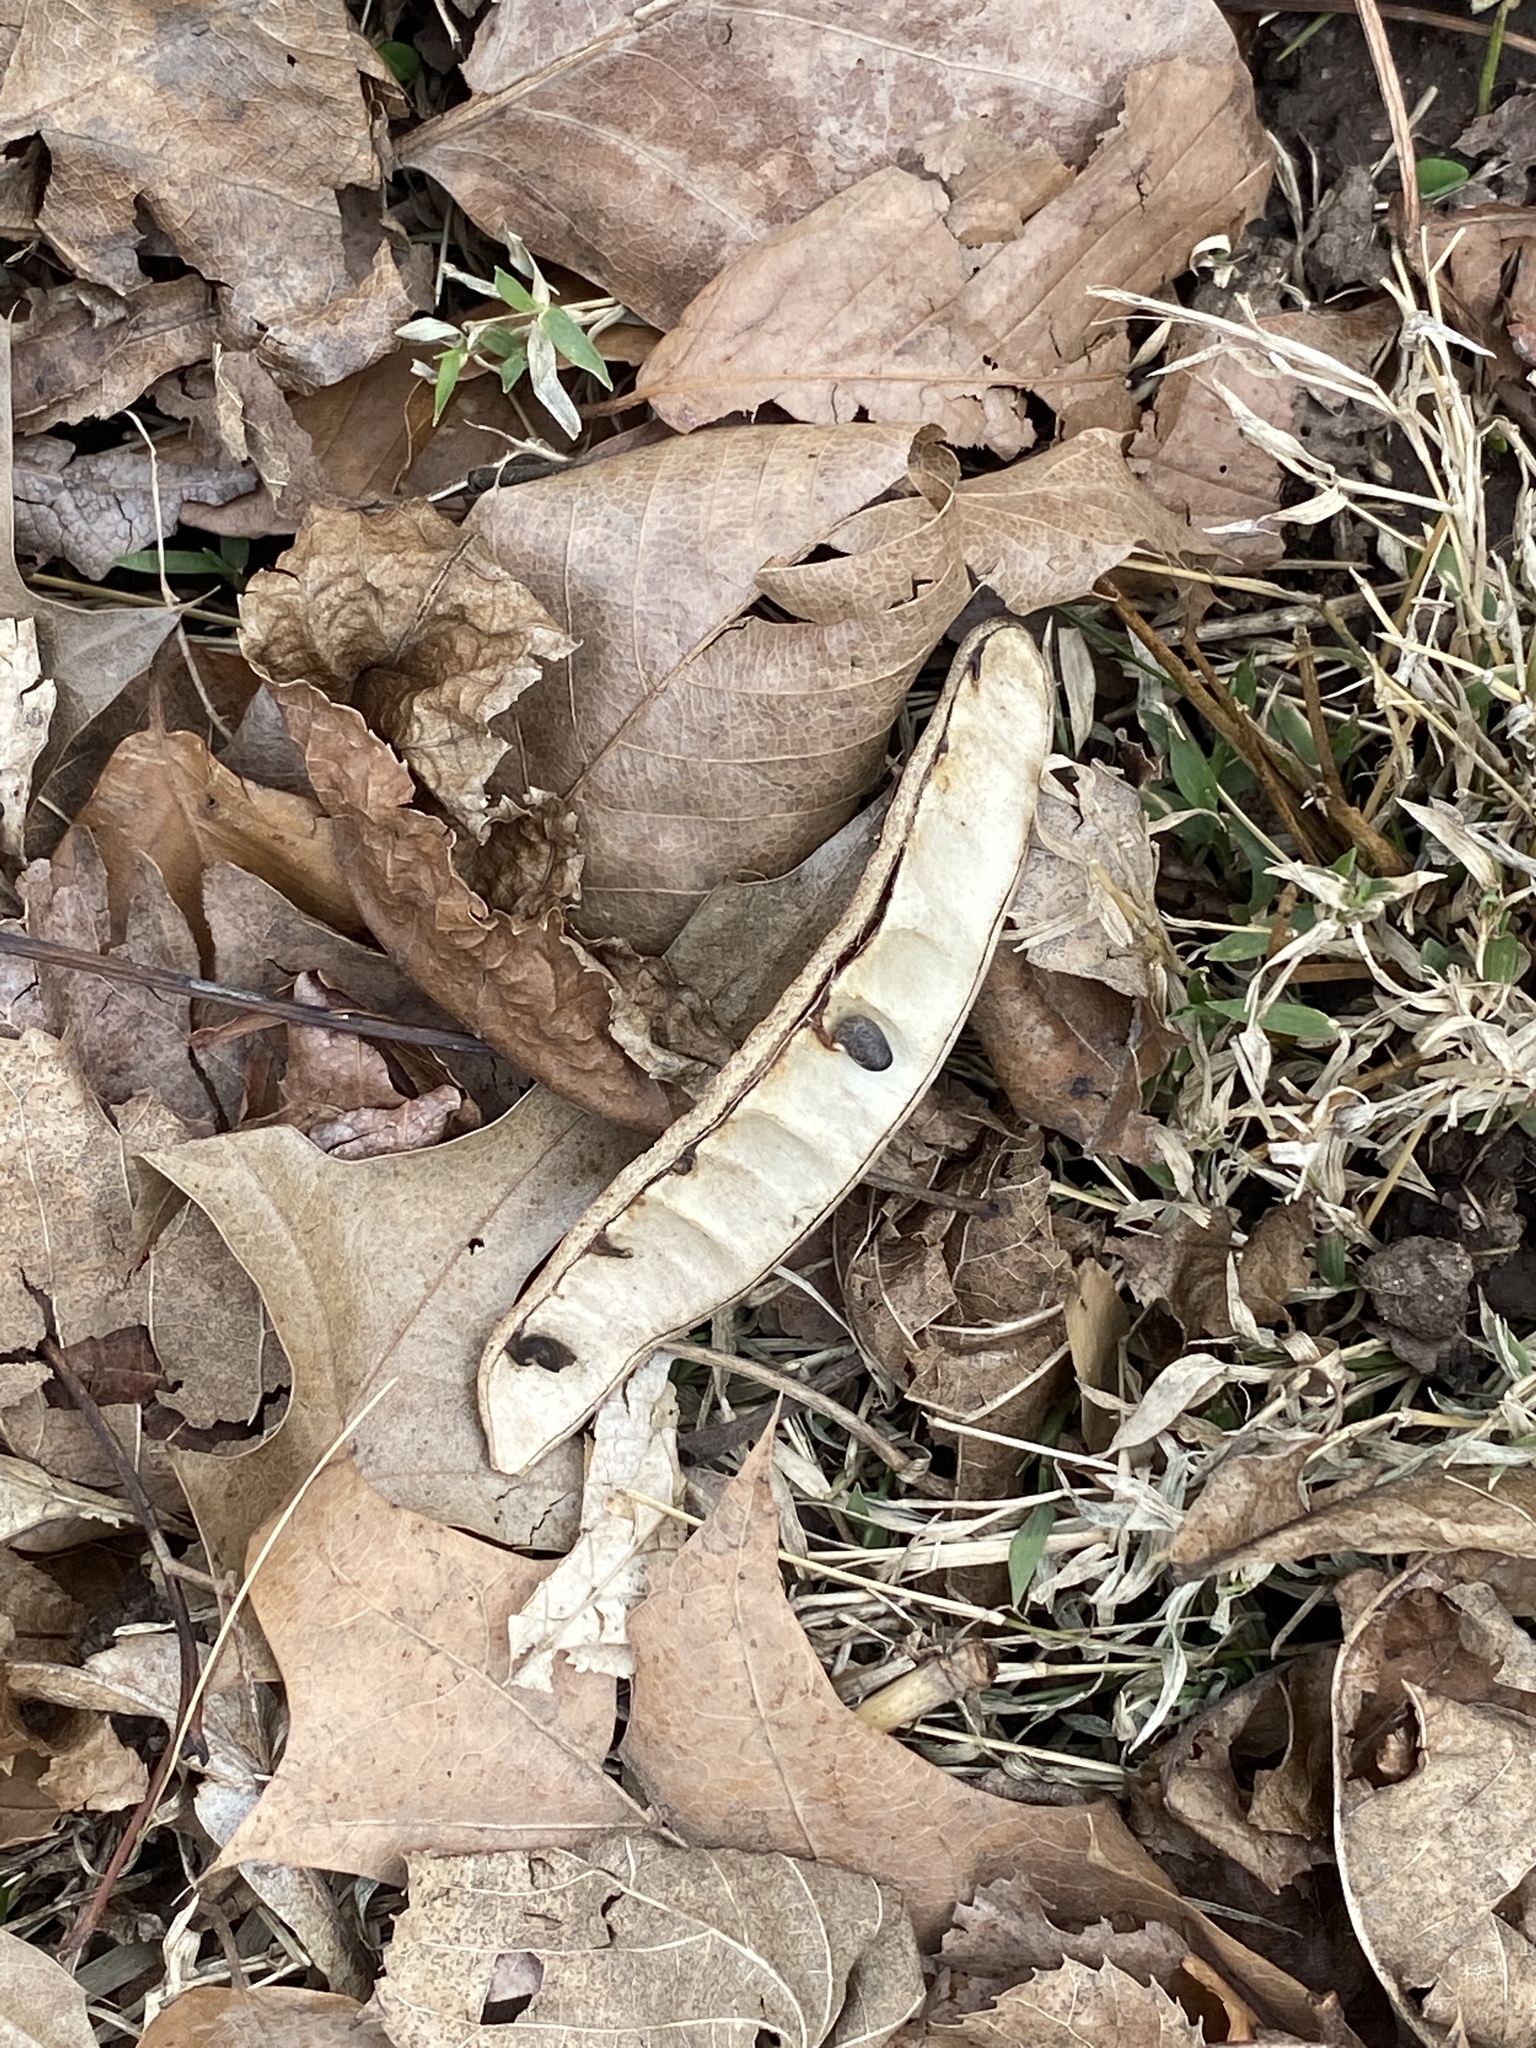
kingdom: Plantae
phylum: Tracheophyta
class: Magnoliopsida
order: Fabales
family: Fabaceae
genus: Robinia
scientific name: Robinia pseudoacacia
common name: Black locust
